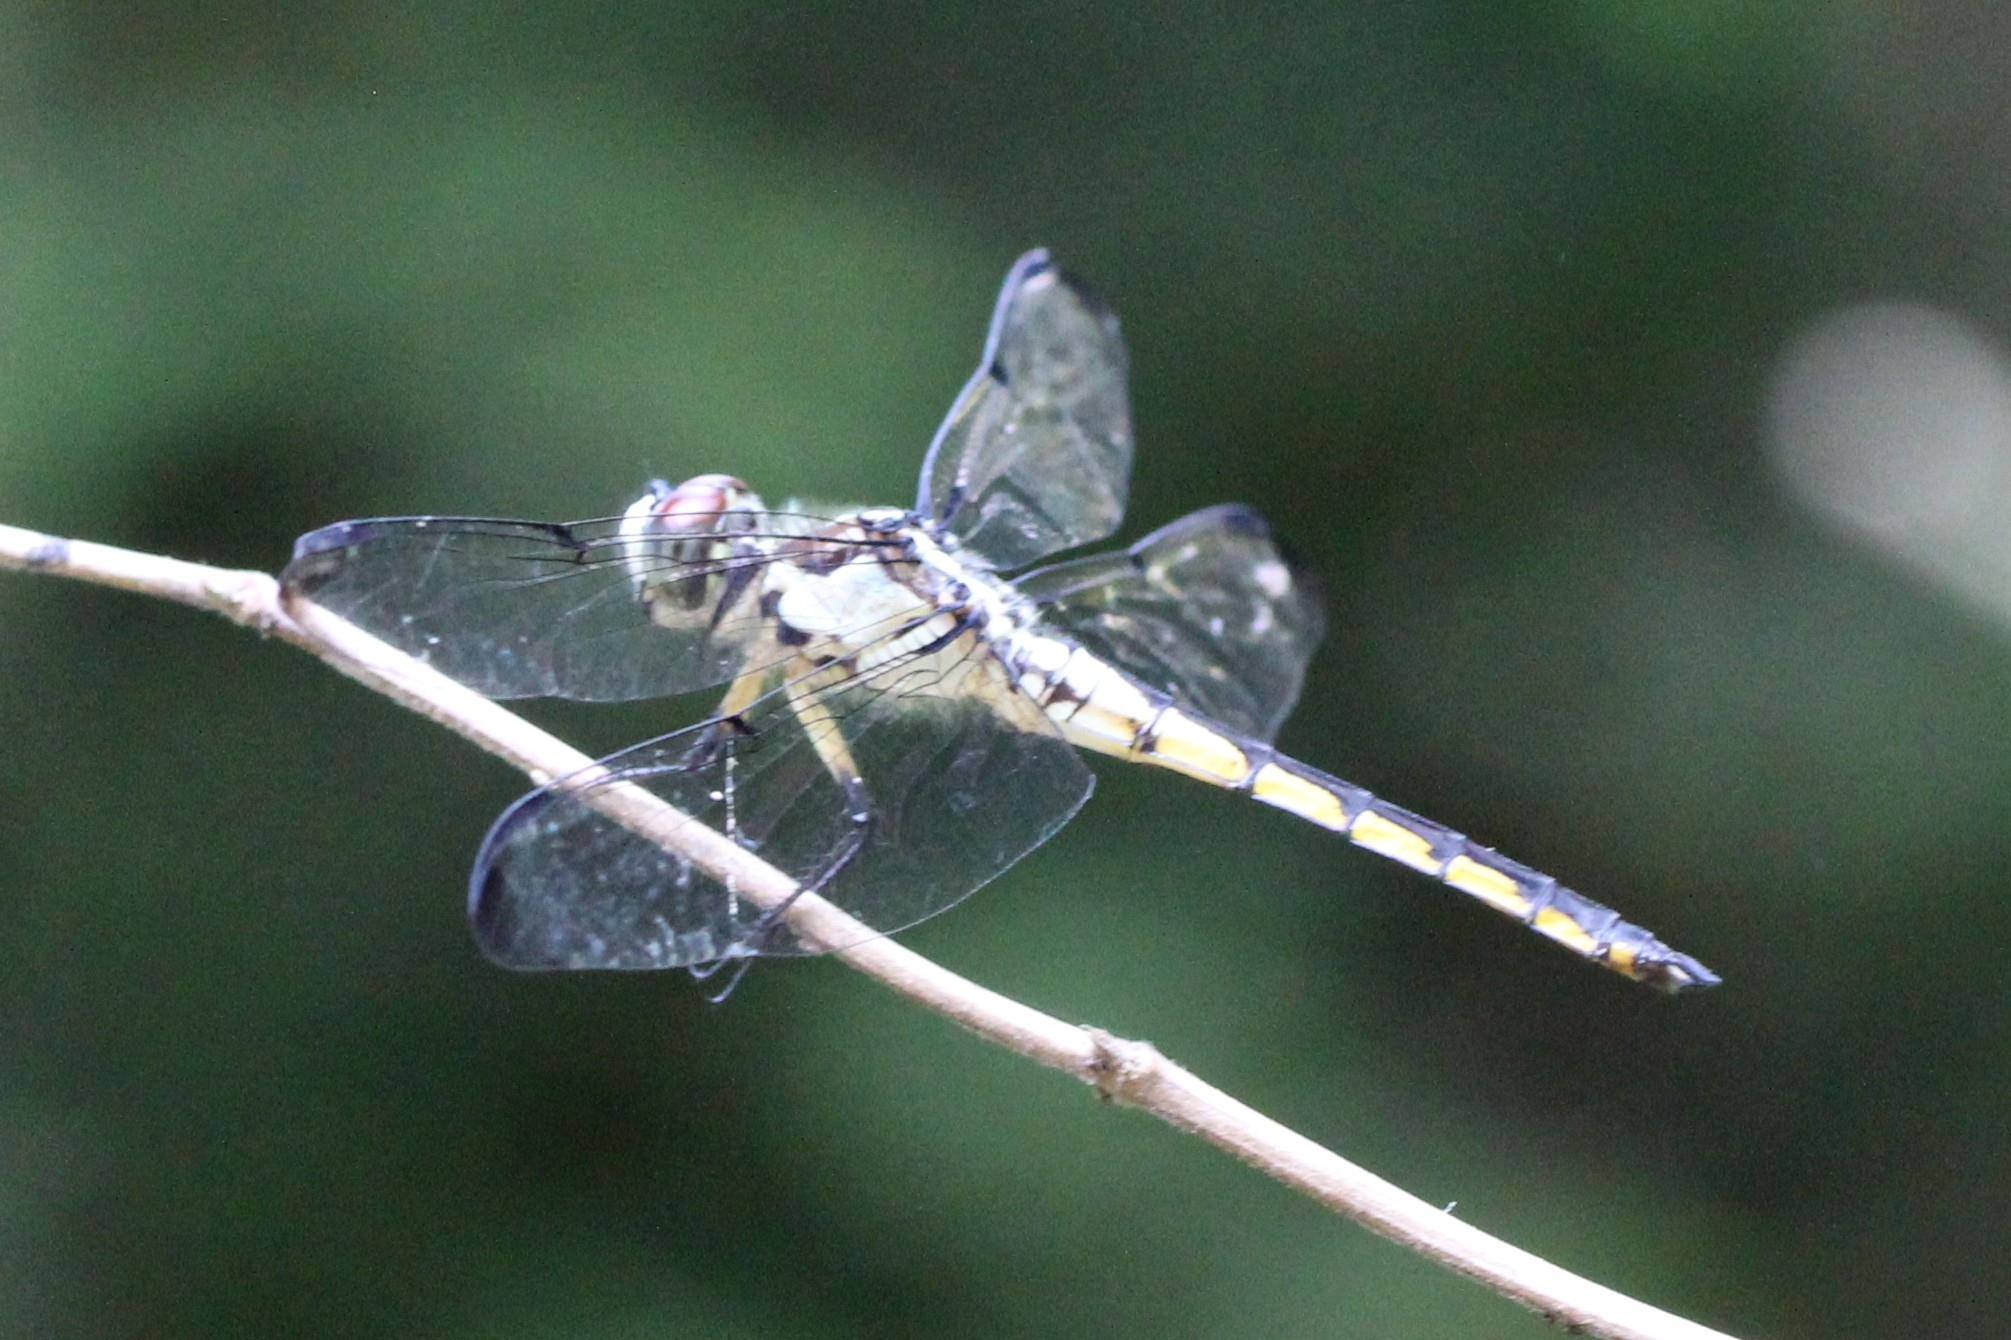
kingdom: Animalia
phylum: Arthropoda
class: Insecta
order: Odonata
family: Libellulidae
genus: Libellula
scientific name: Libellula vibrans
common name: Great blue skimmer
